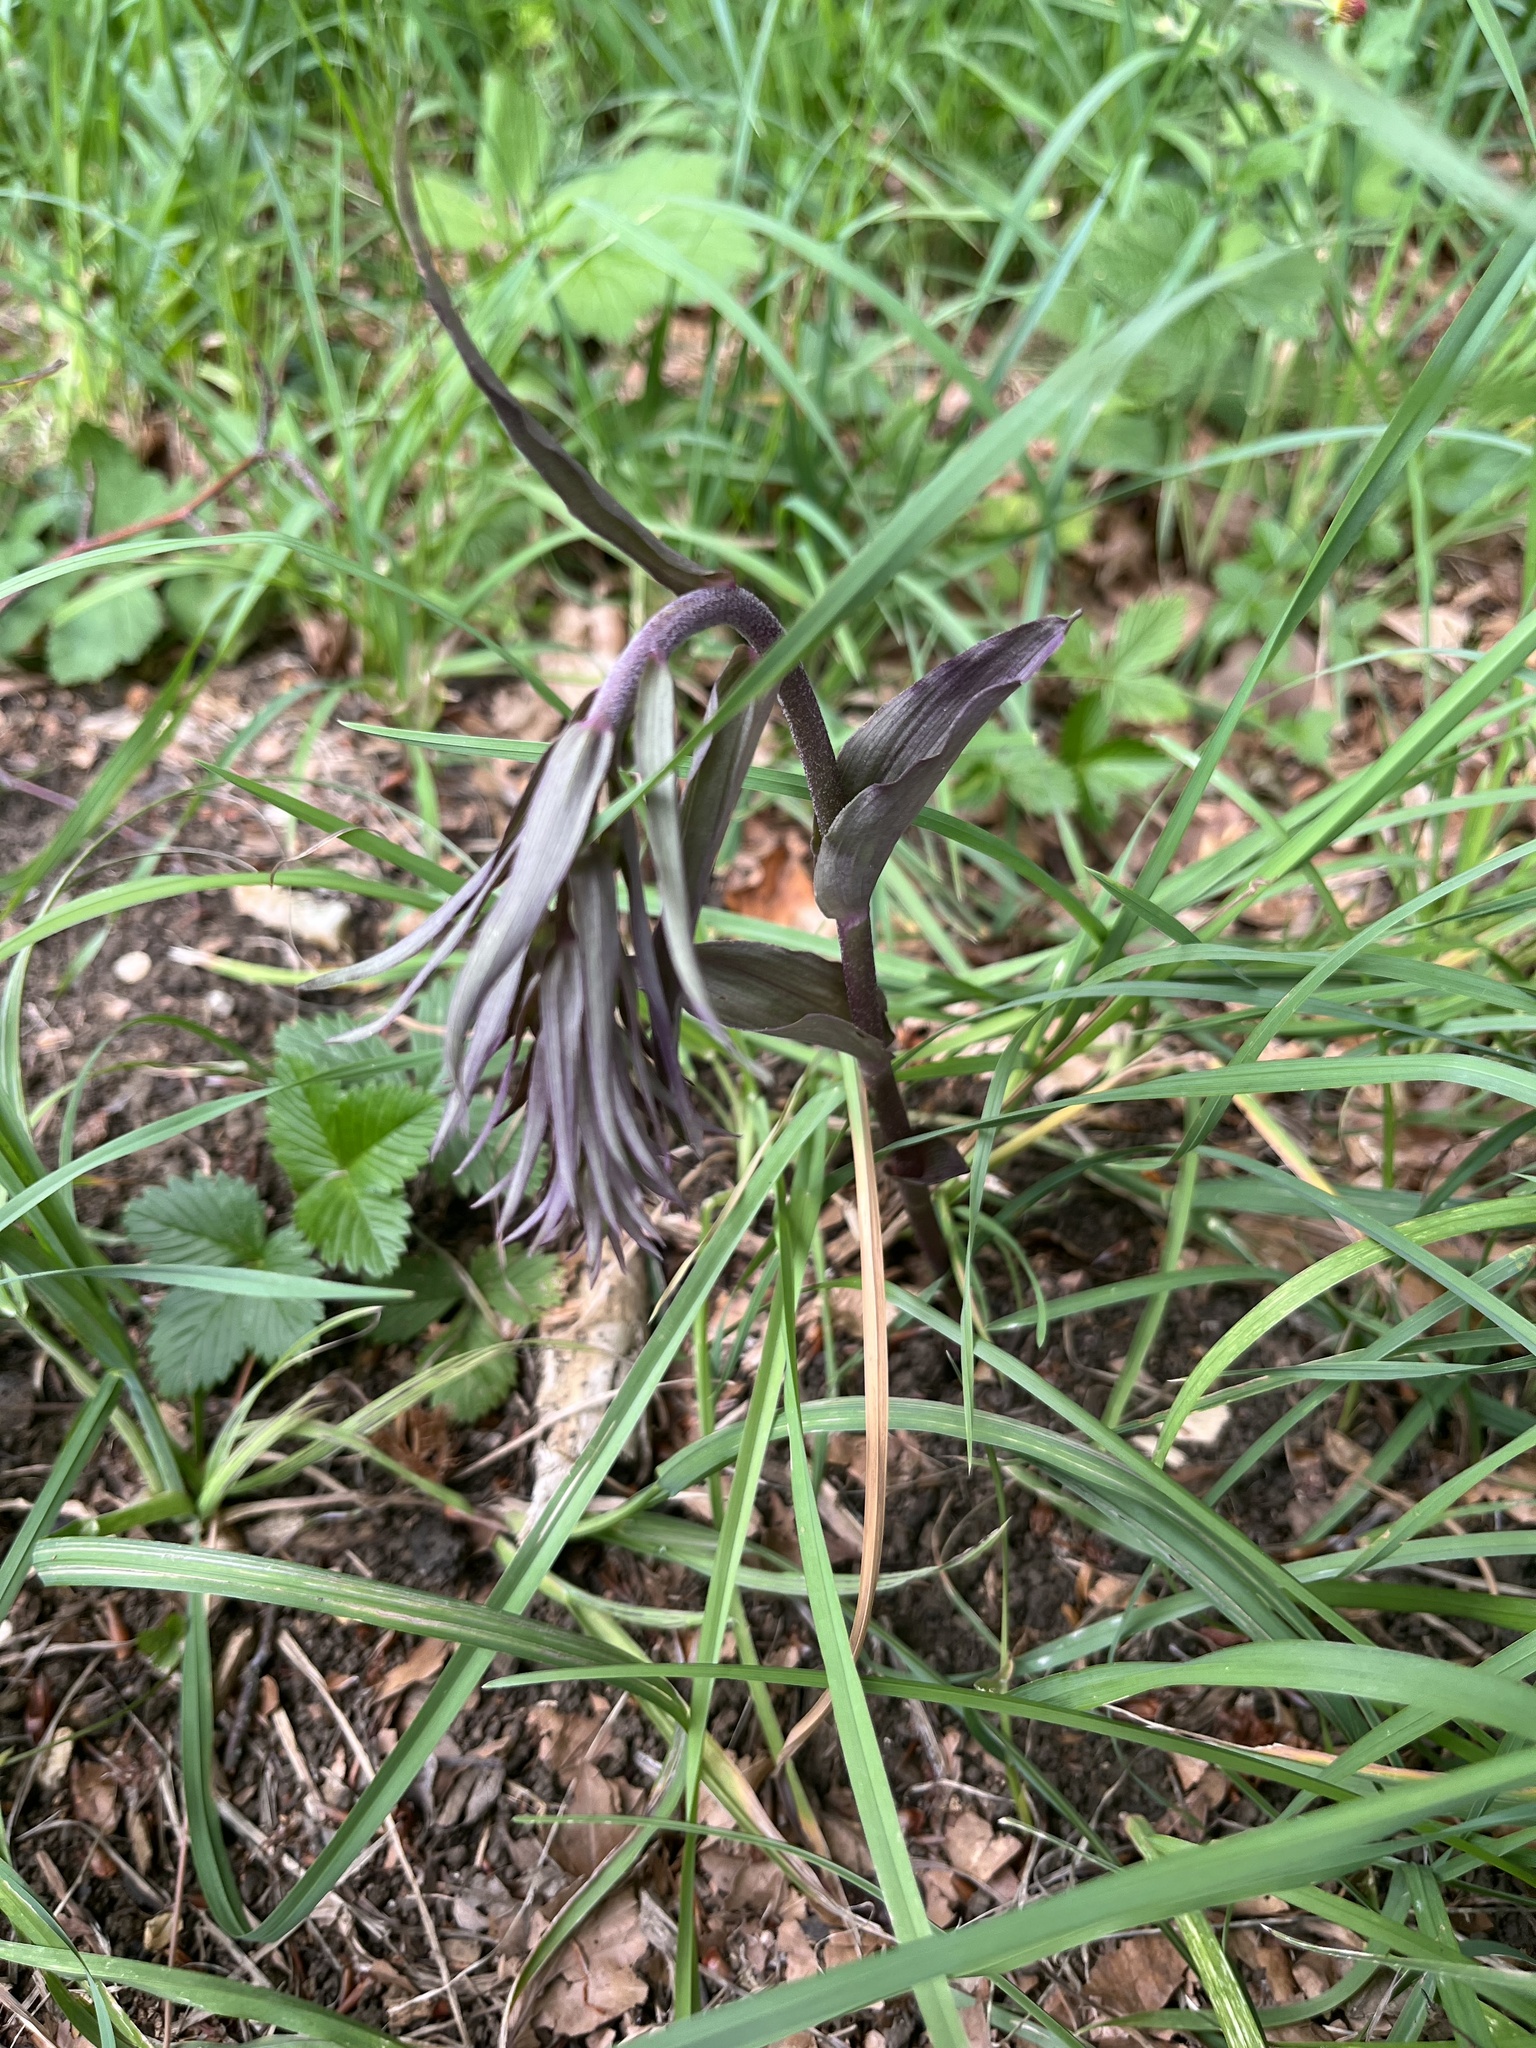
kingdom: Plantae
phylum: Tracheophyta
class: Liliopsida
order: Asparagales
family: Orchidaceae
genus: Epipactis
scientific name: Epipactis purpurata
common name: Violet helleborine
